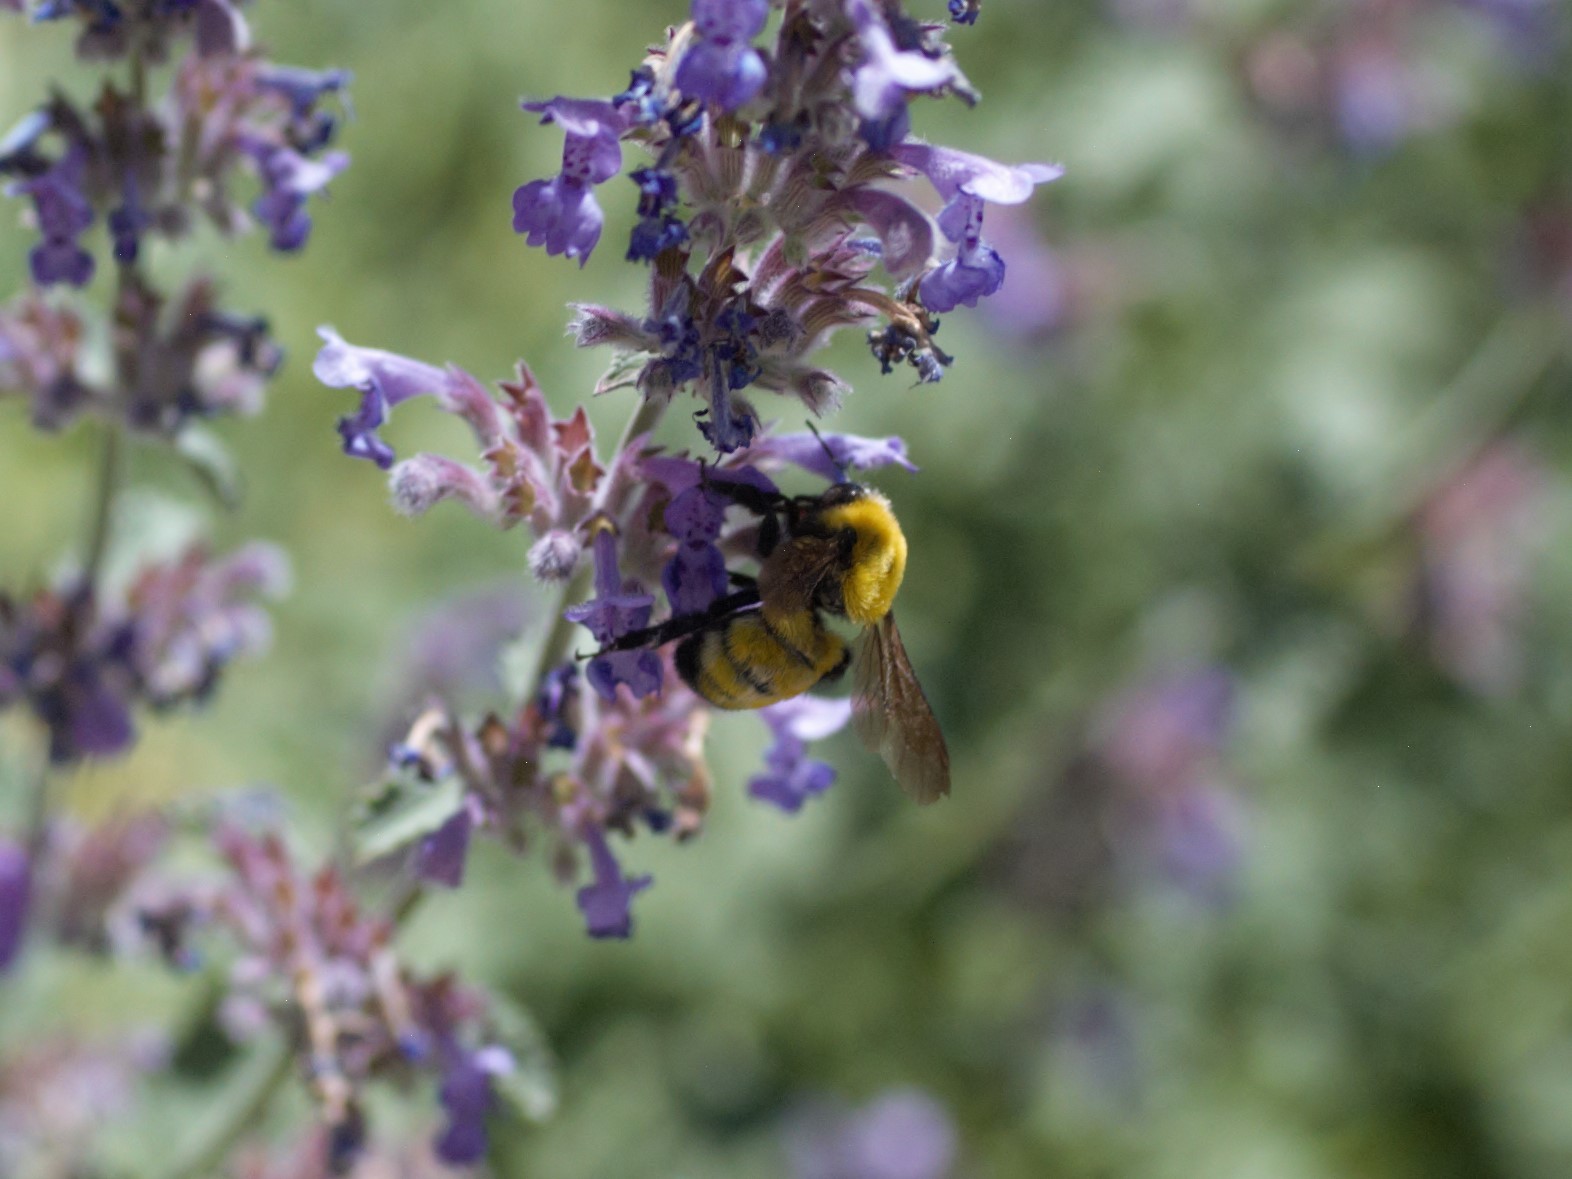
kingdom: Animalia
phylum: Arthropoda
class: Insecta
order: Hymenoptera
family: Apidae
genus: Bombus
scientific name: Bombus morrisoni
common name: Morrison bumble bee
